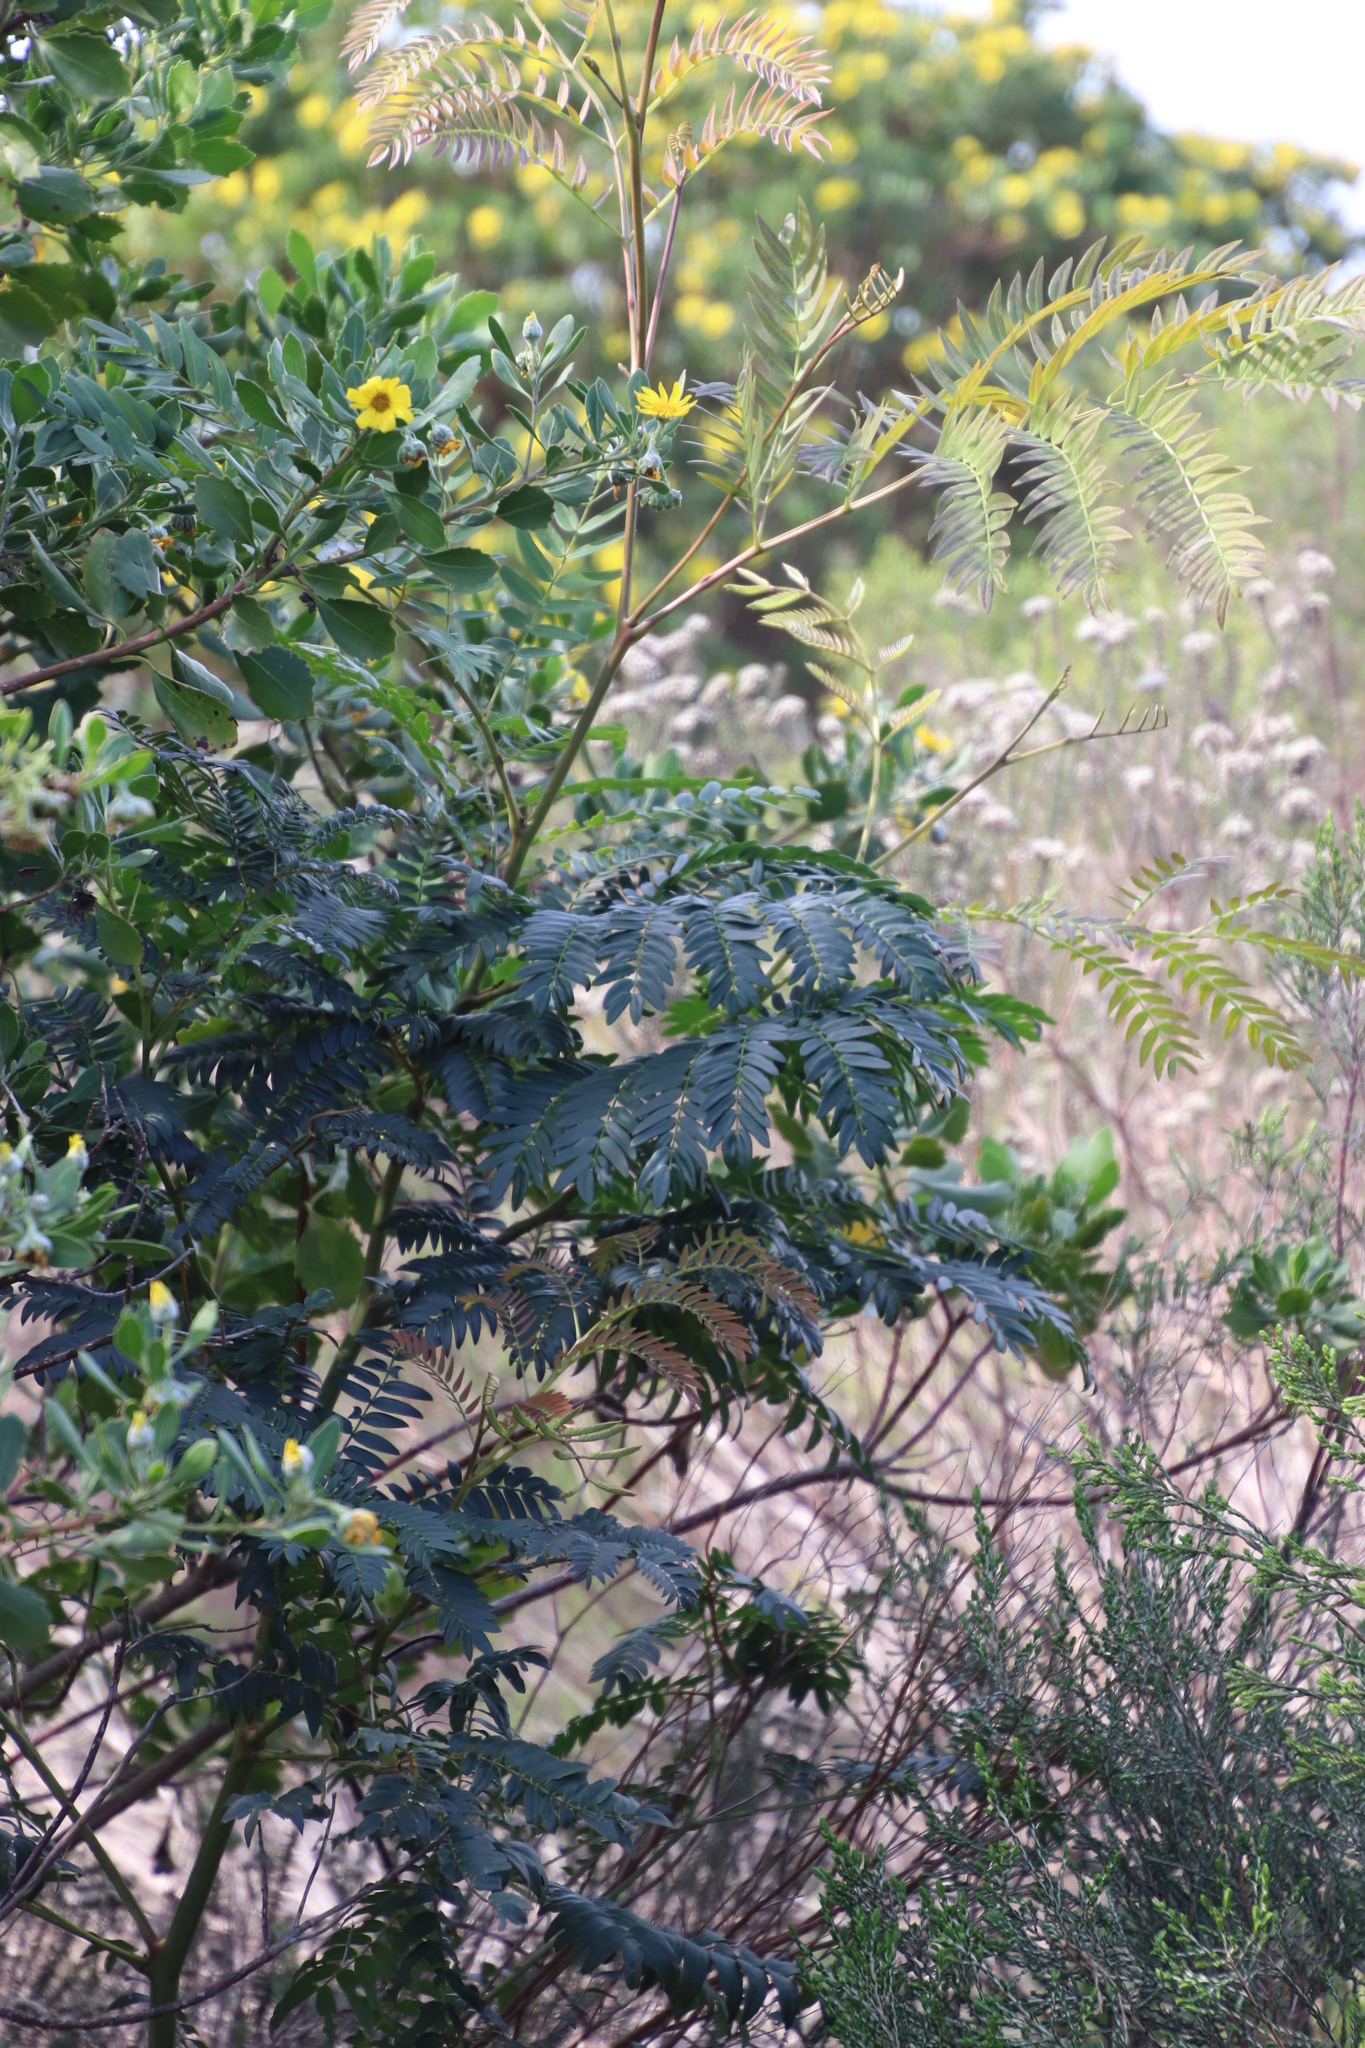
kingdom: Plantae
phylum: Tracheophyta
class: Magnoliopsida
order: Fabales
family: Fabaceae
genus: Acacia
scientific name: Acacia elata
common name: Cedar wattle
